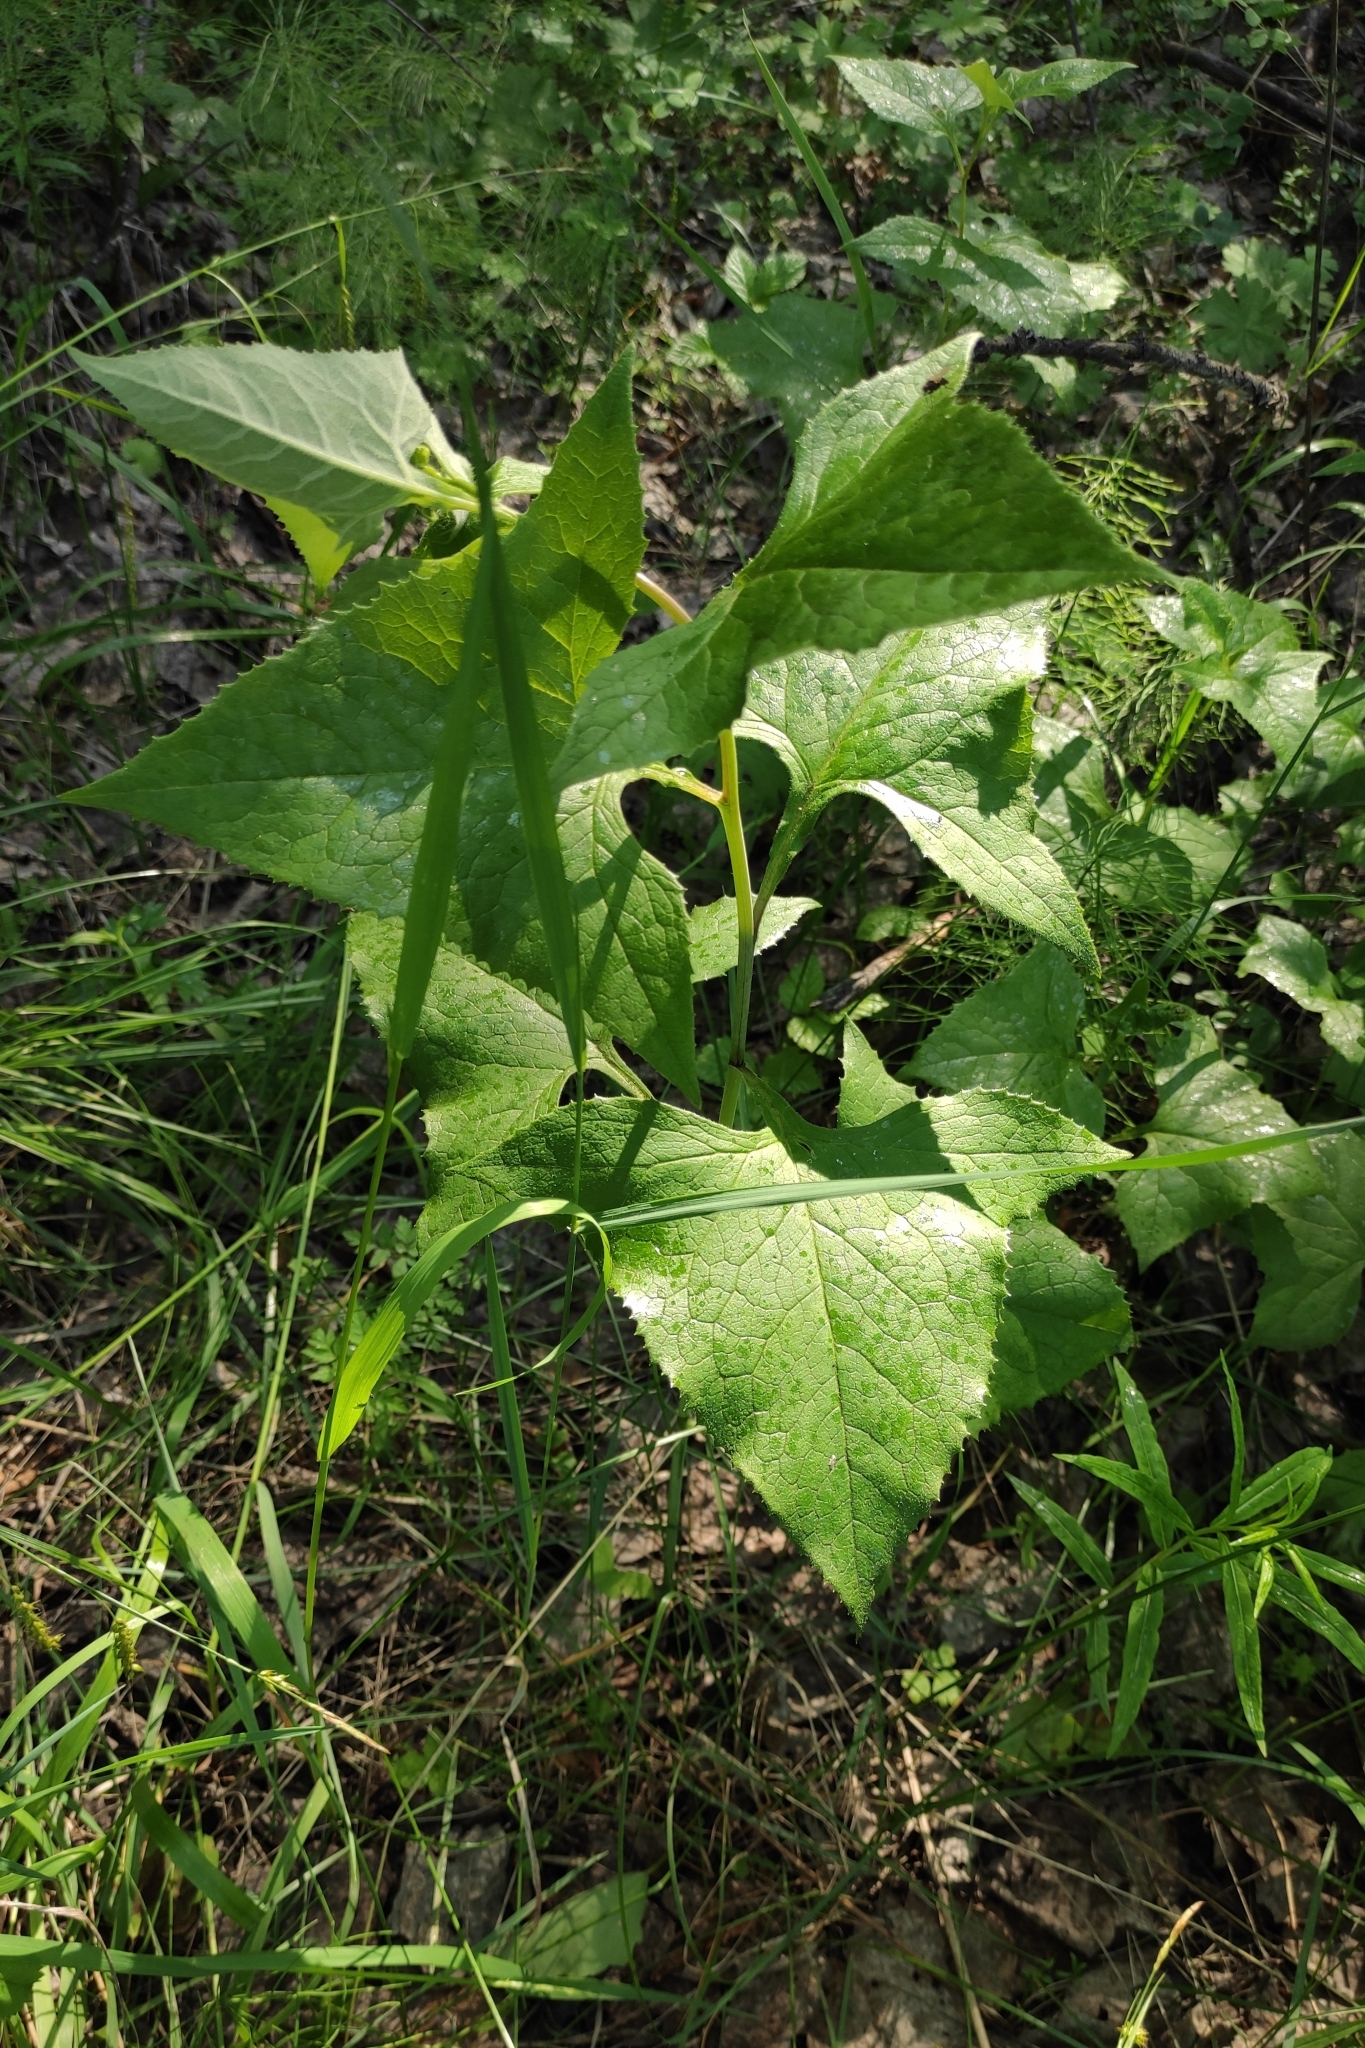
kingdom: Plantae
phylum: Tracheophyta
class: Magnoliopsida
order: Asterales
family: Asteraceae
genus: Parasenecio
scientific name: Parasenecio hastatus
